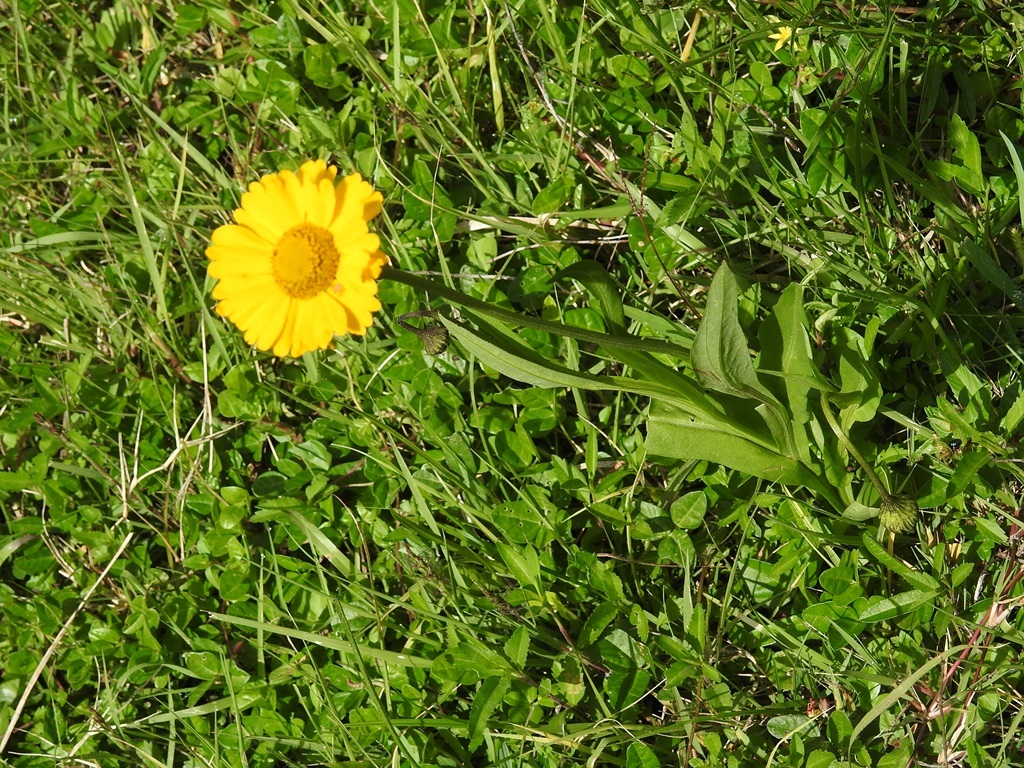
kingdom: Plantae
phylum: Tracheophyta
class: Magnoliopsida
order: Asterales
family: Asteraceae
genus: Helenium
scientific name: Helenium scorzonerifolium
